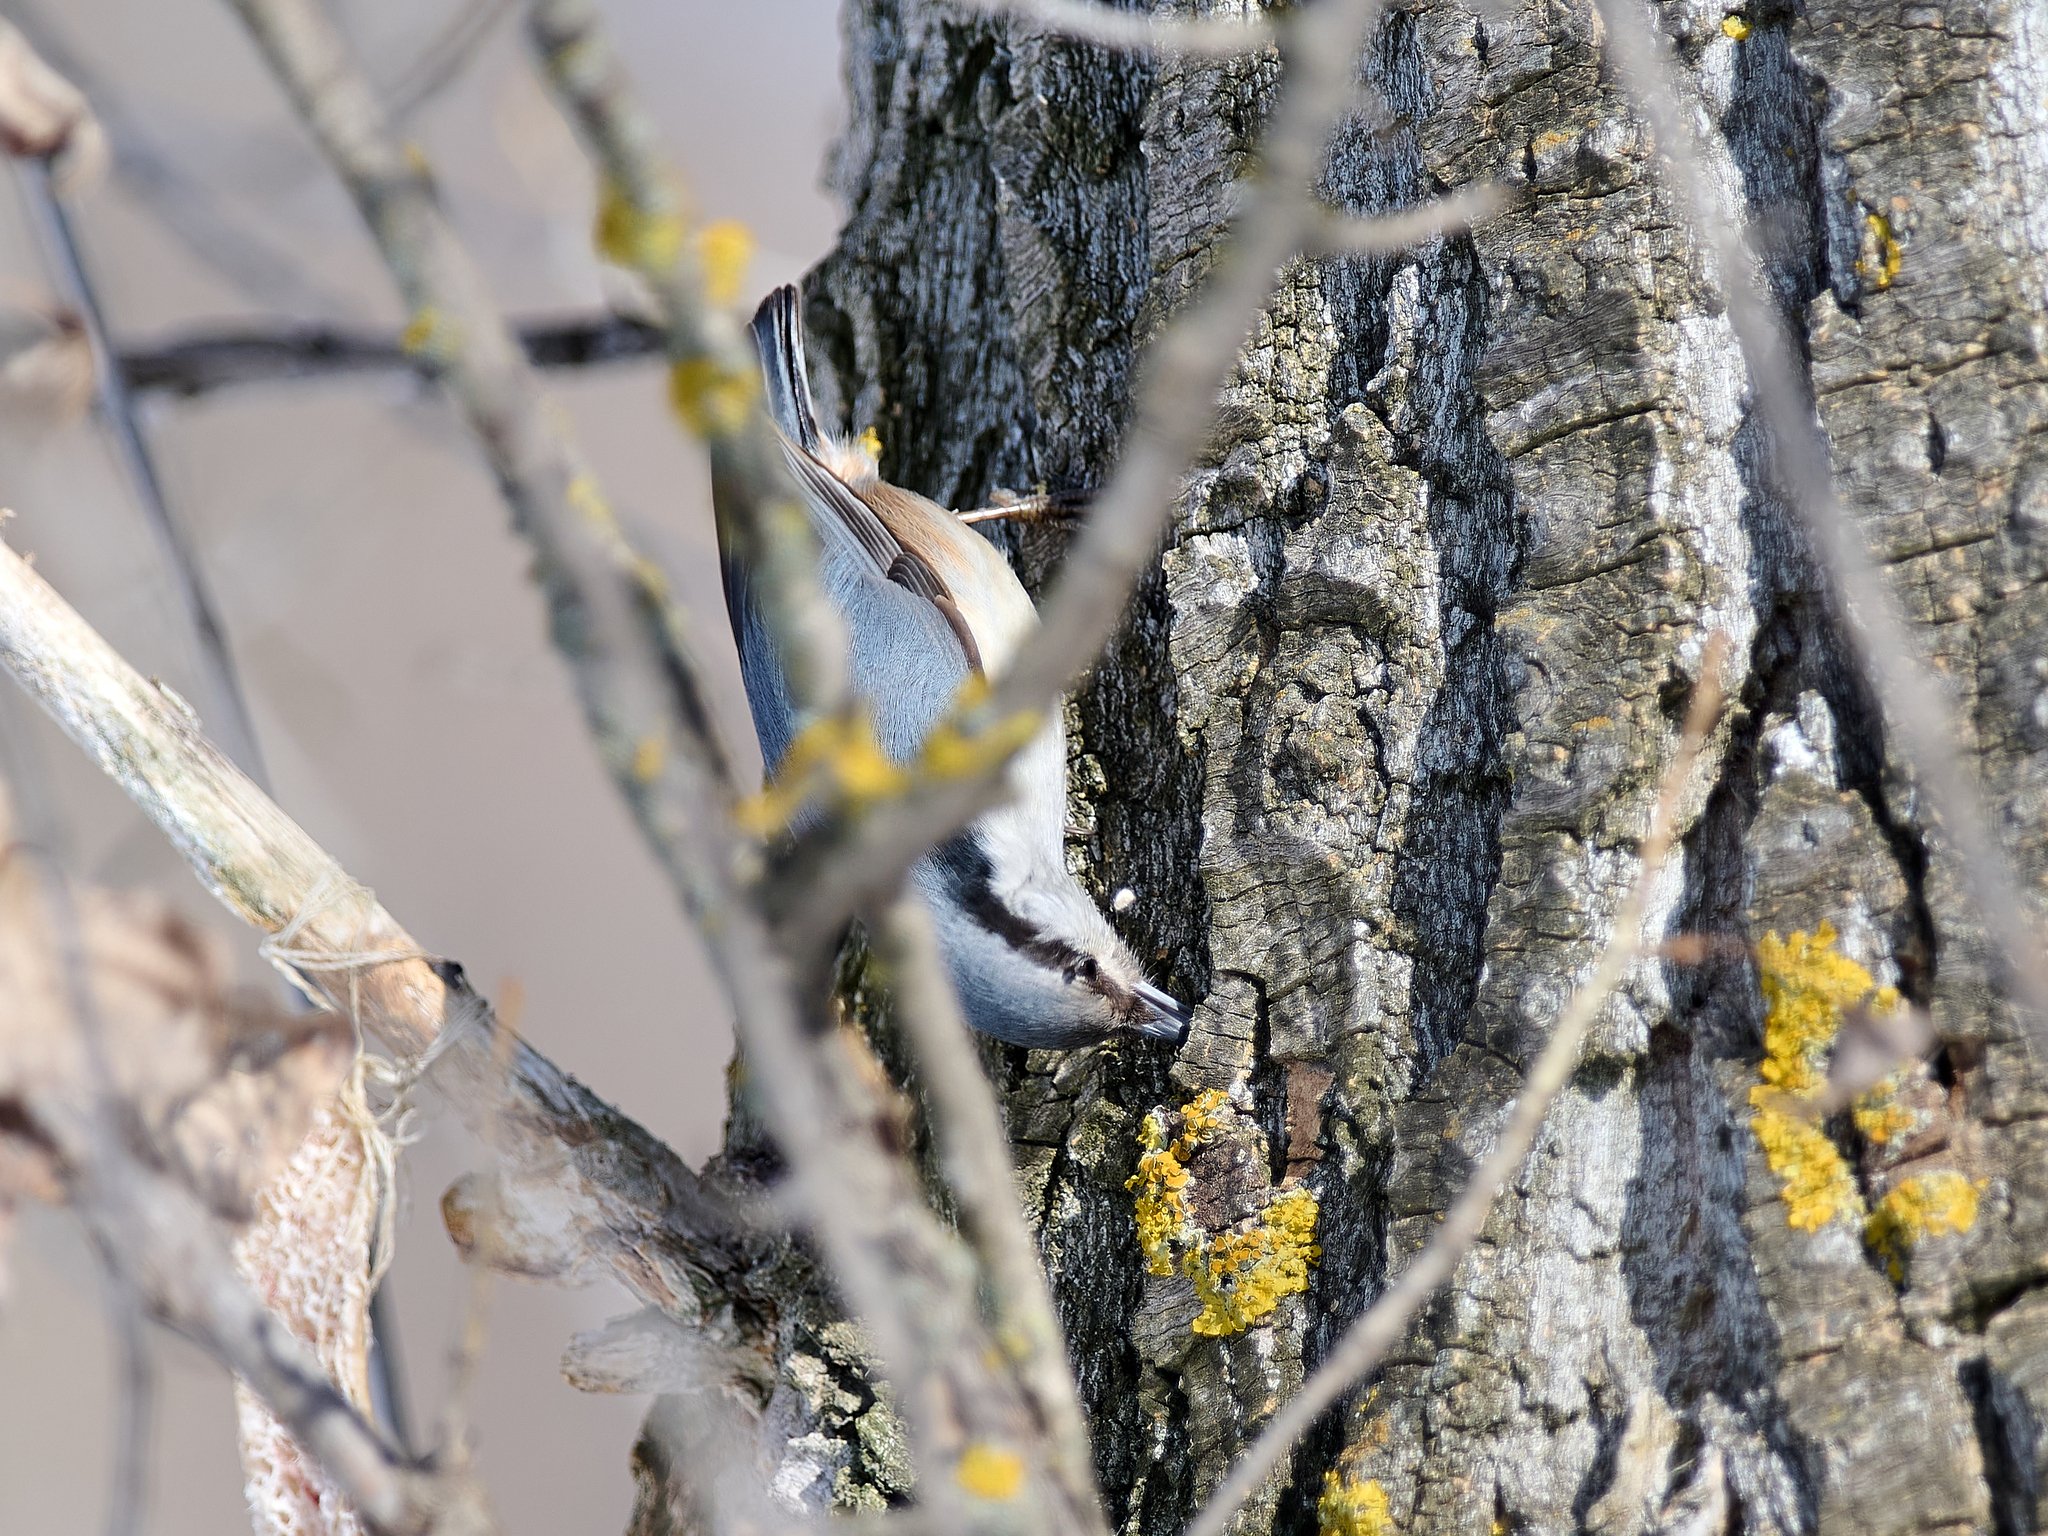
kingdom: Animalia
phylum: Chordata
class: Aves
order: Passeriformes
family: Sittidae
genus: Sitta
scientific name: Sitta europaea
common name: Eurasian nuthatch
